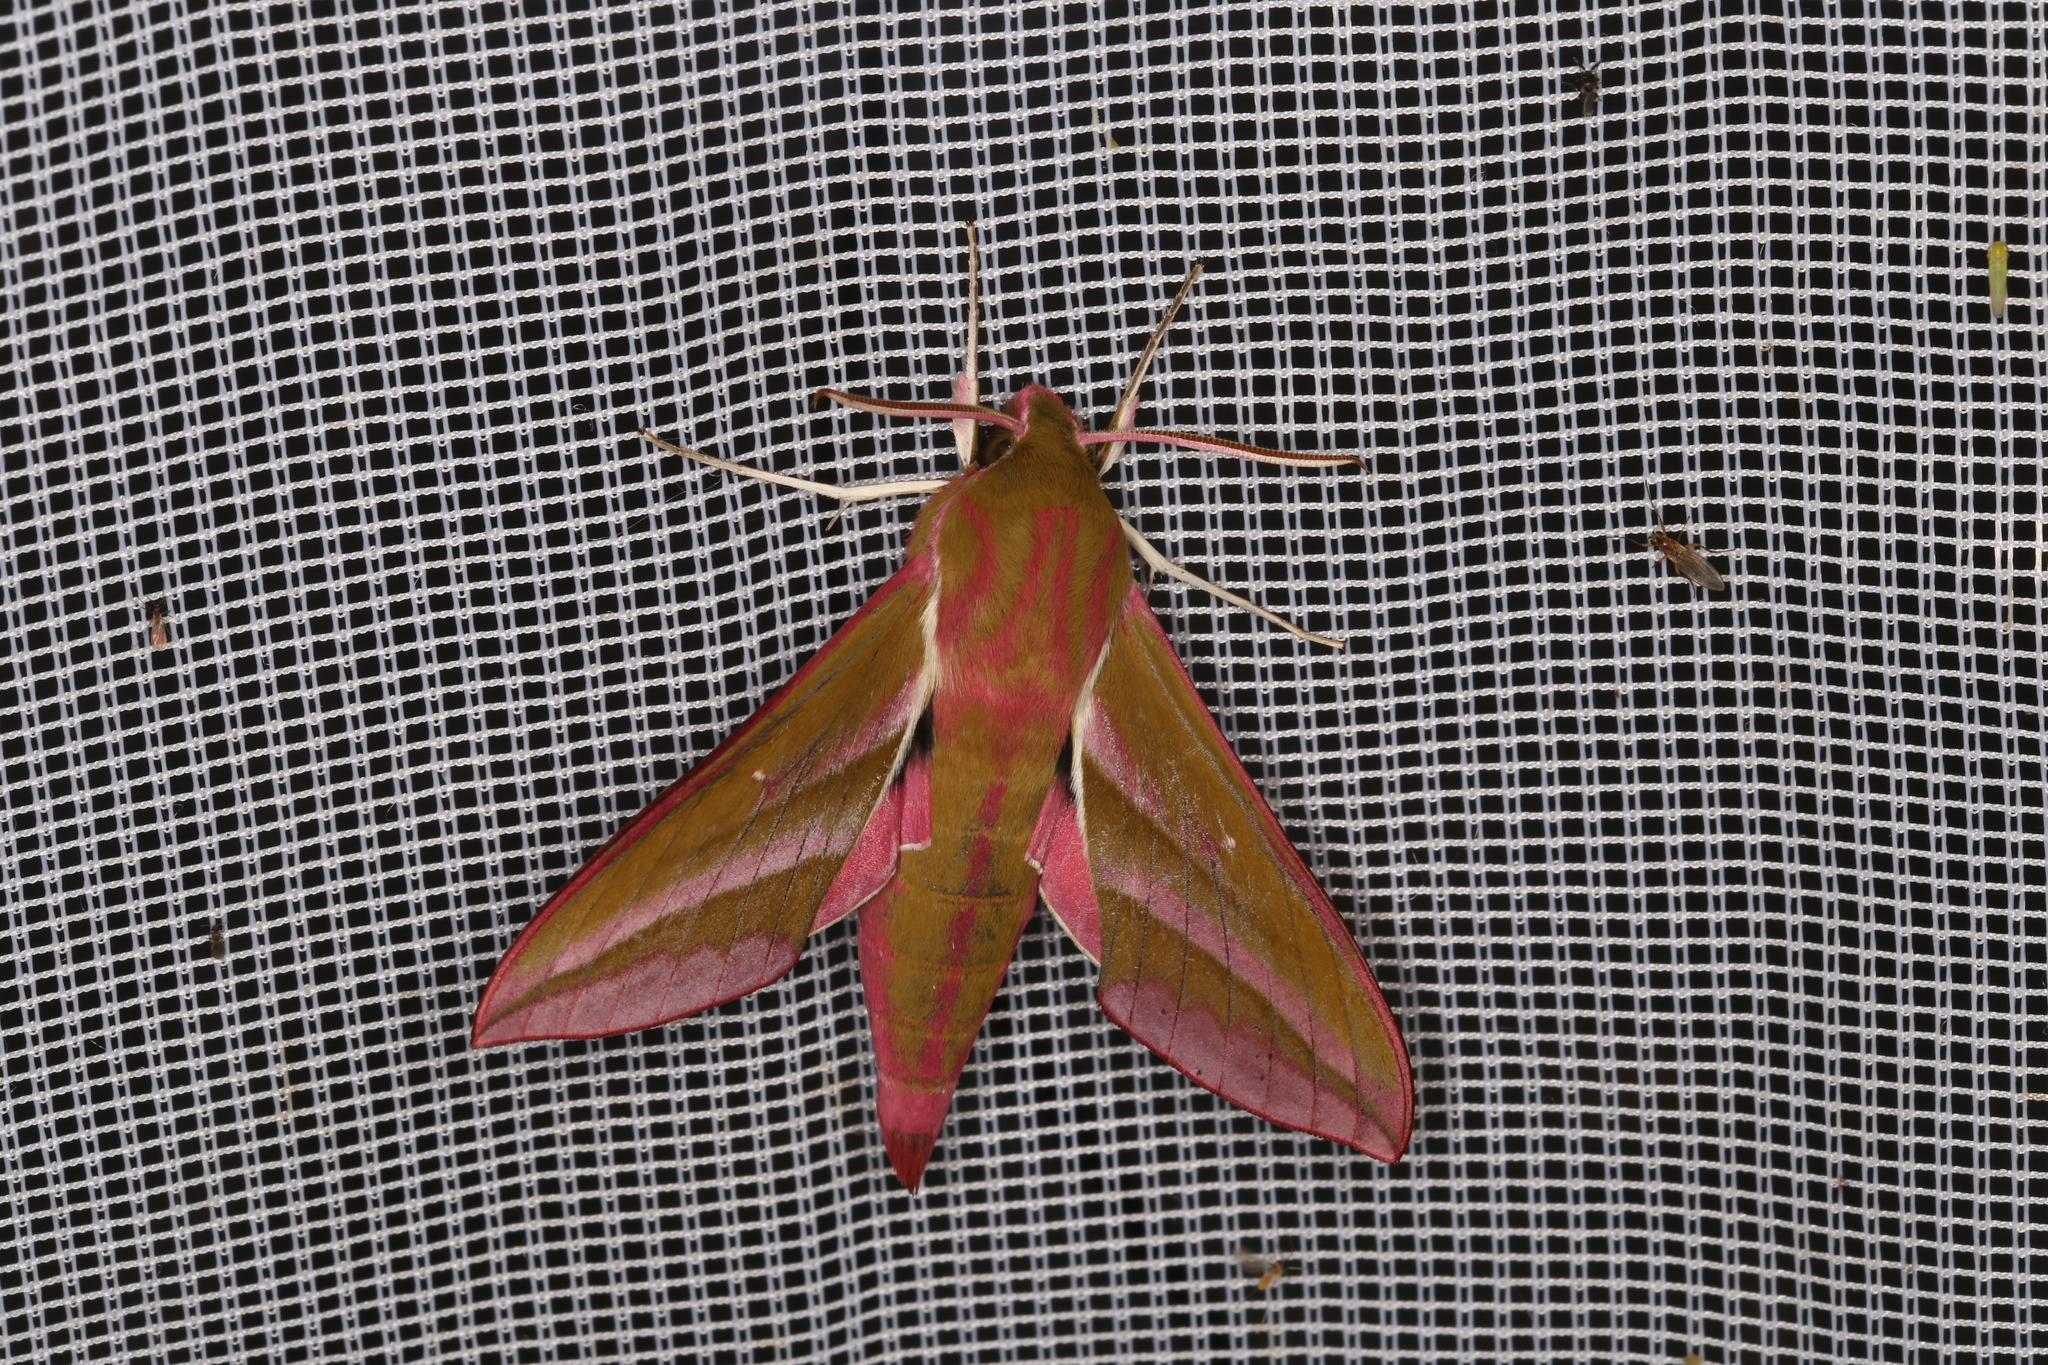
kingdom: Animalia
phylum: Arthropoda
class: Insecta
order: Lepidoptera
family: Sphingidae
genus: Deilephila
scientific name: Deilephila elpenor
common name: Elephant hawk-moth
